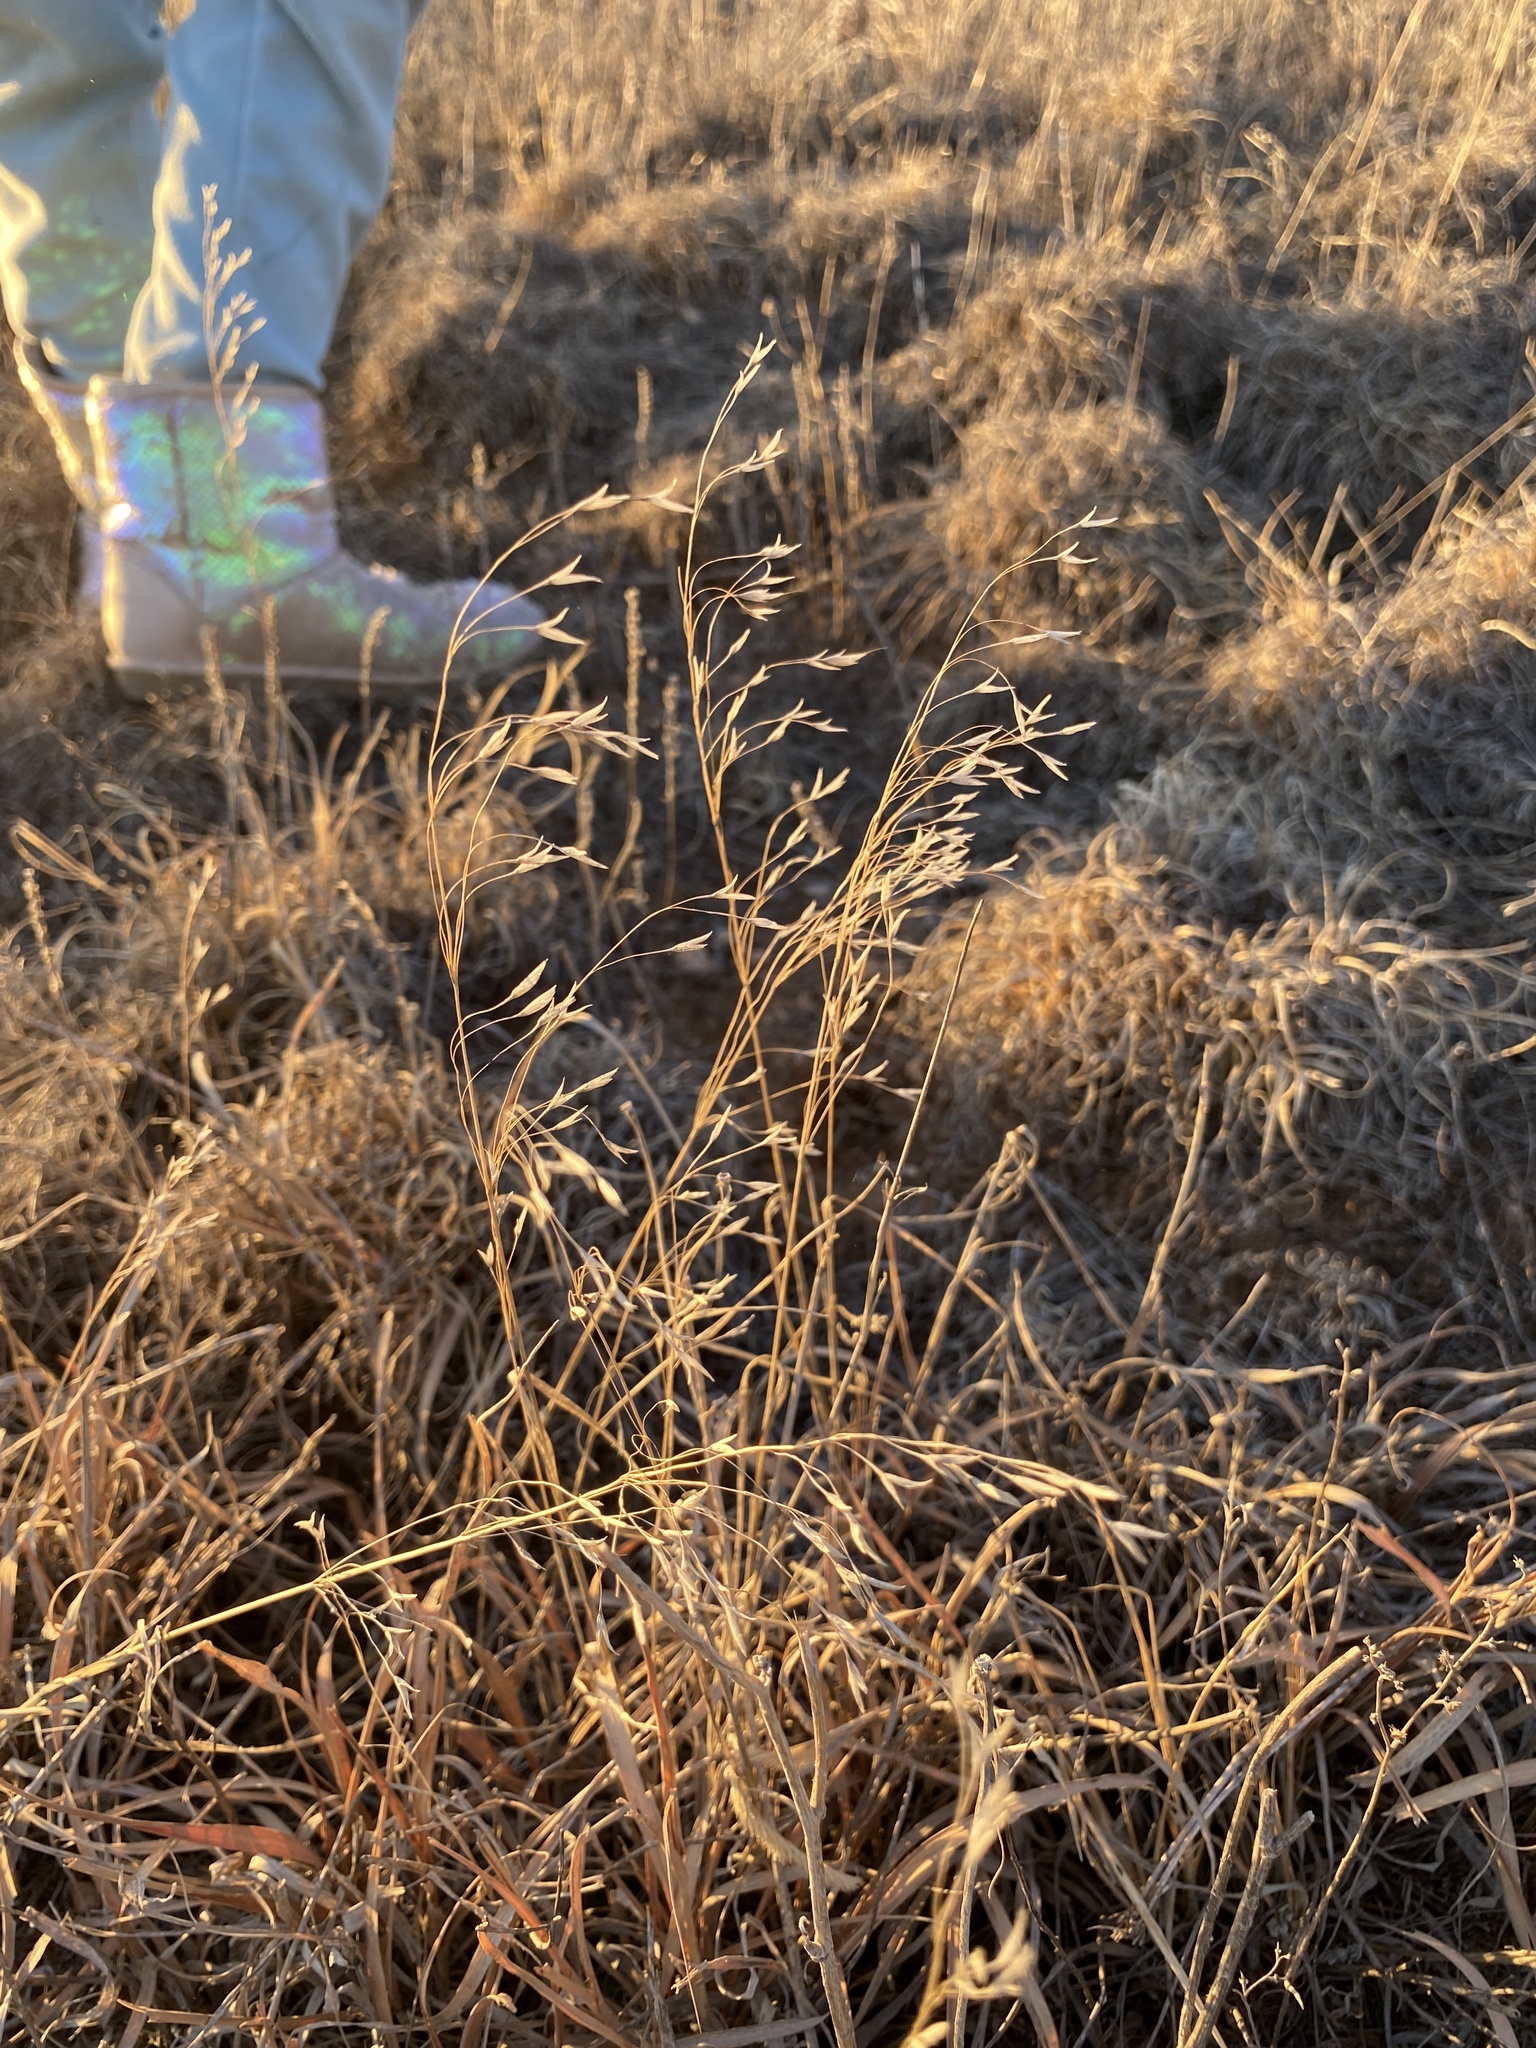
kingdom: Plantae
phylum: Tracheophyta
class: Liliopsida
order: Poales
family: Poaceae
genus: Bromus
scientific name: Bromus japonicus
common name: Japanese brome
